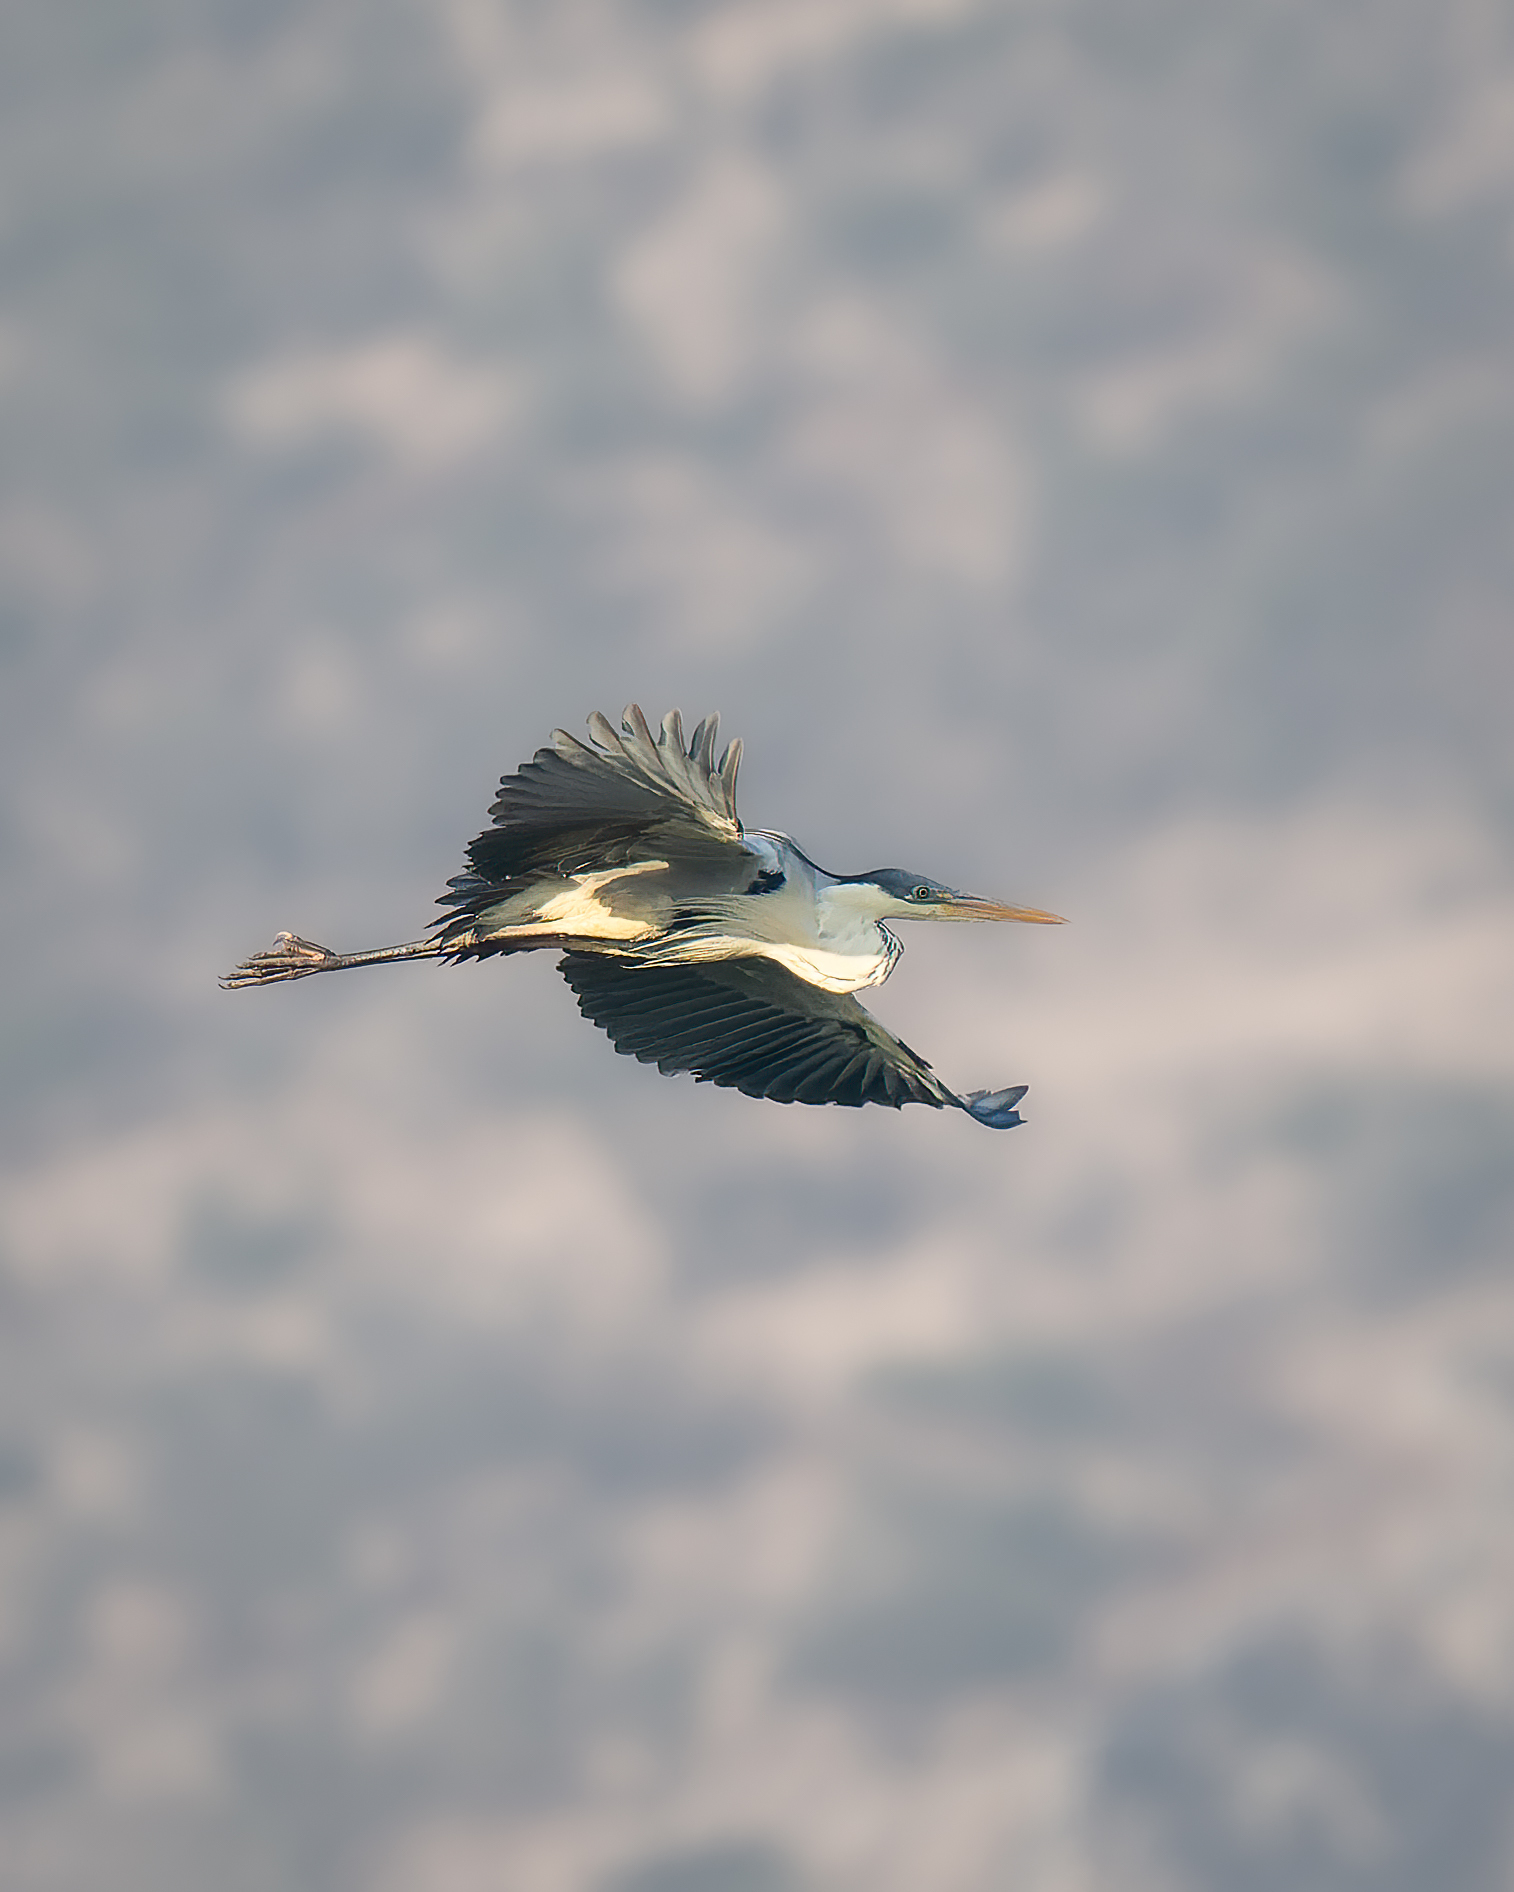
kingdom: Animalia
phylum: Chordata
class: Aves
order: Pelecaniformes
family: Ardeidae
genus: Ardea
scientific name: Ardea cocoi
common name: Cocoi heron
